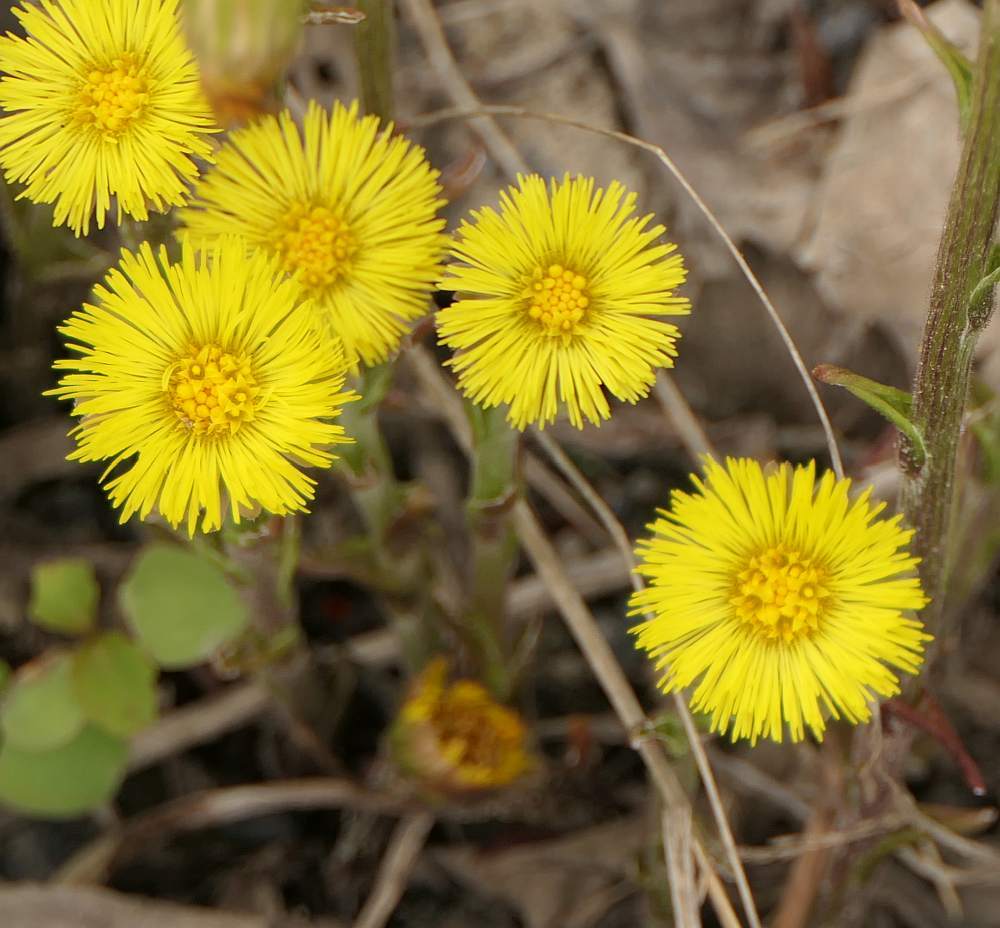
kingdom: Plantae
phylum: Tracheophyta
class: Magnoliopsida
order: Asterales
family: Asteraceae
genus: Tussilago
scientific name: Tussilago farfara
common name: Coltsfoot
